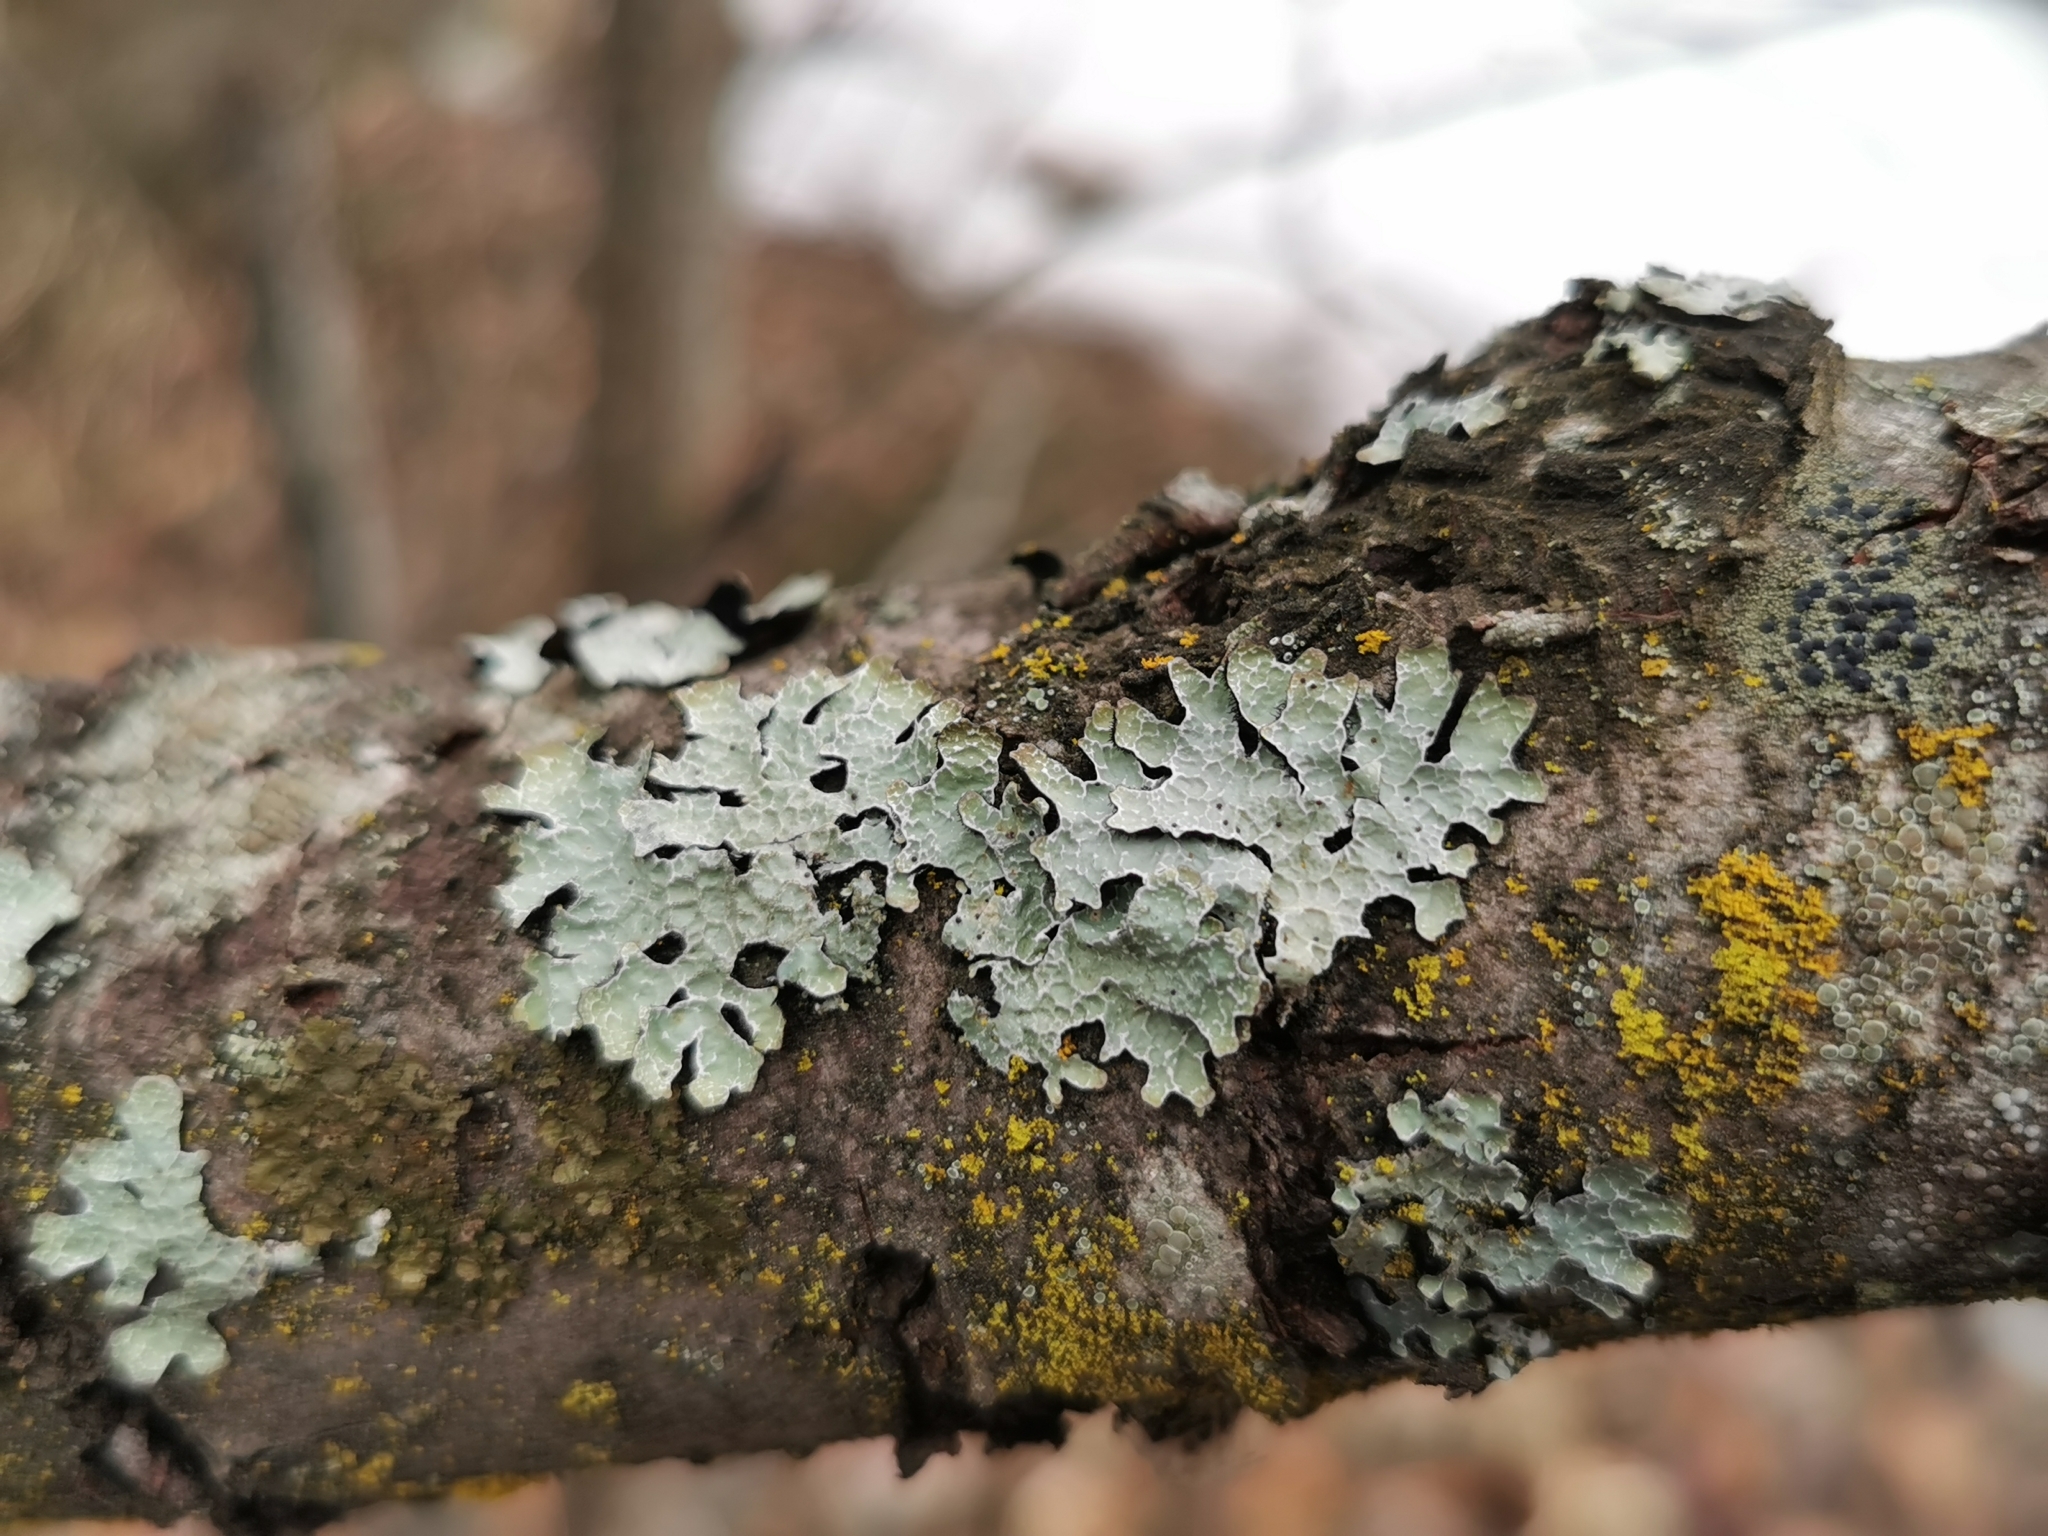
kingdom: Fungi
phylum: Ascomycota
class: Lecanoromycetes
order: Lecanorales
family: Parmeliaceae
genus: Parmelia
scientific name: Parmelia sulcata
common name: Netted shield lichen
